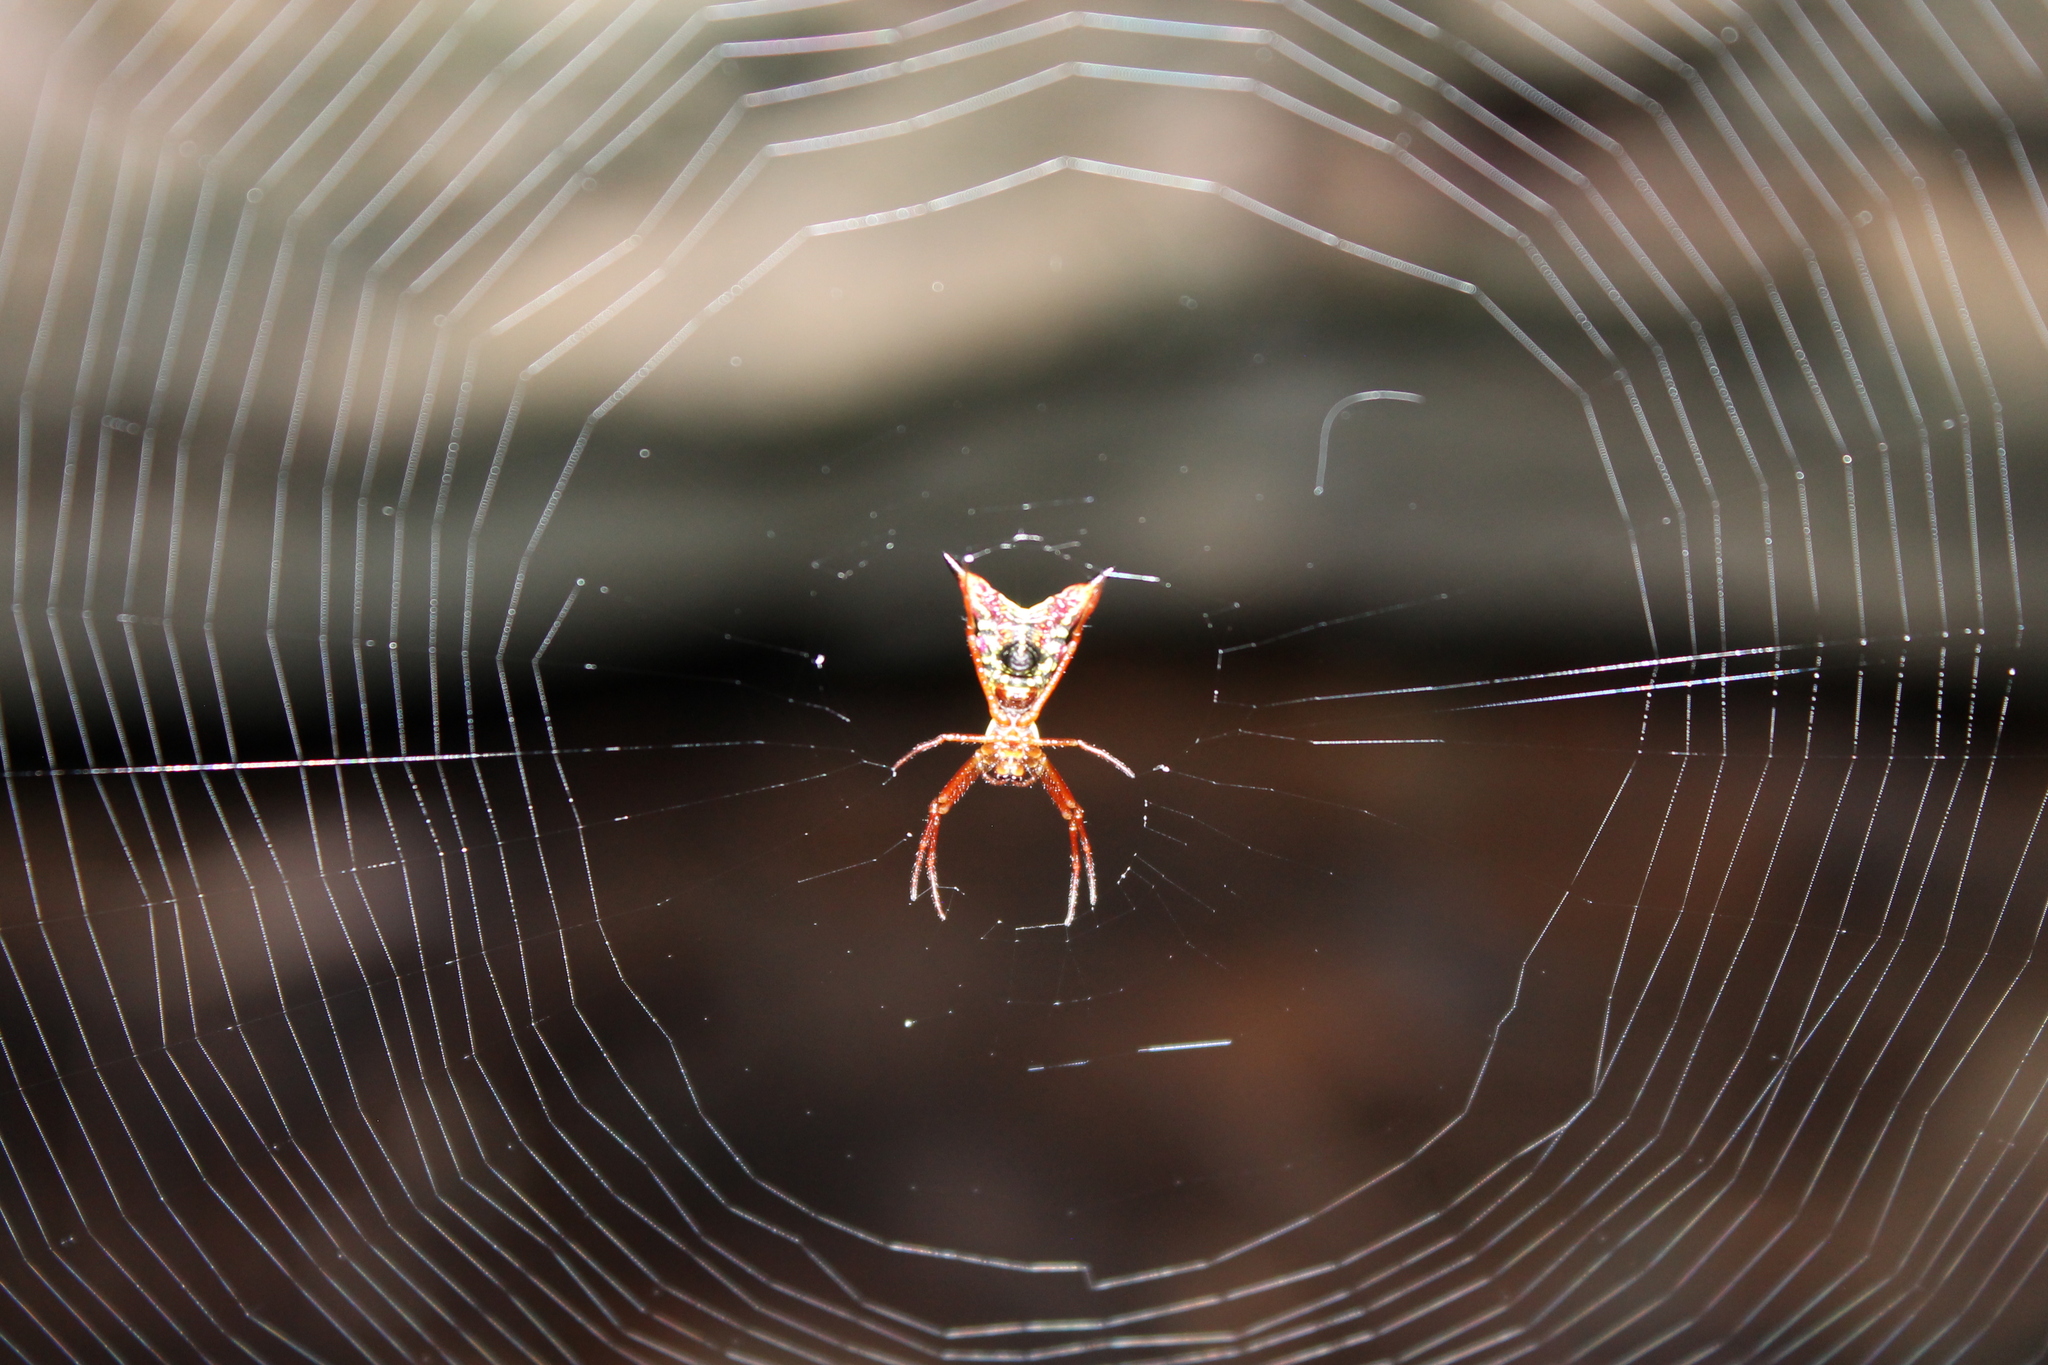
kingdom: Animalia
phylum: Arthropoda
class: Arachnida
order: Araneae
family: Araneidae
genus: Micrathena
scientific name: Micrathena sagittata
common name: Orb weavers
